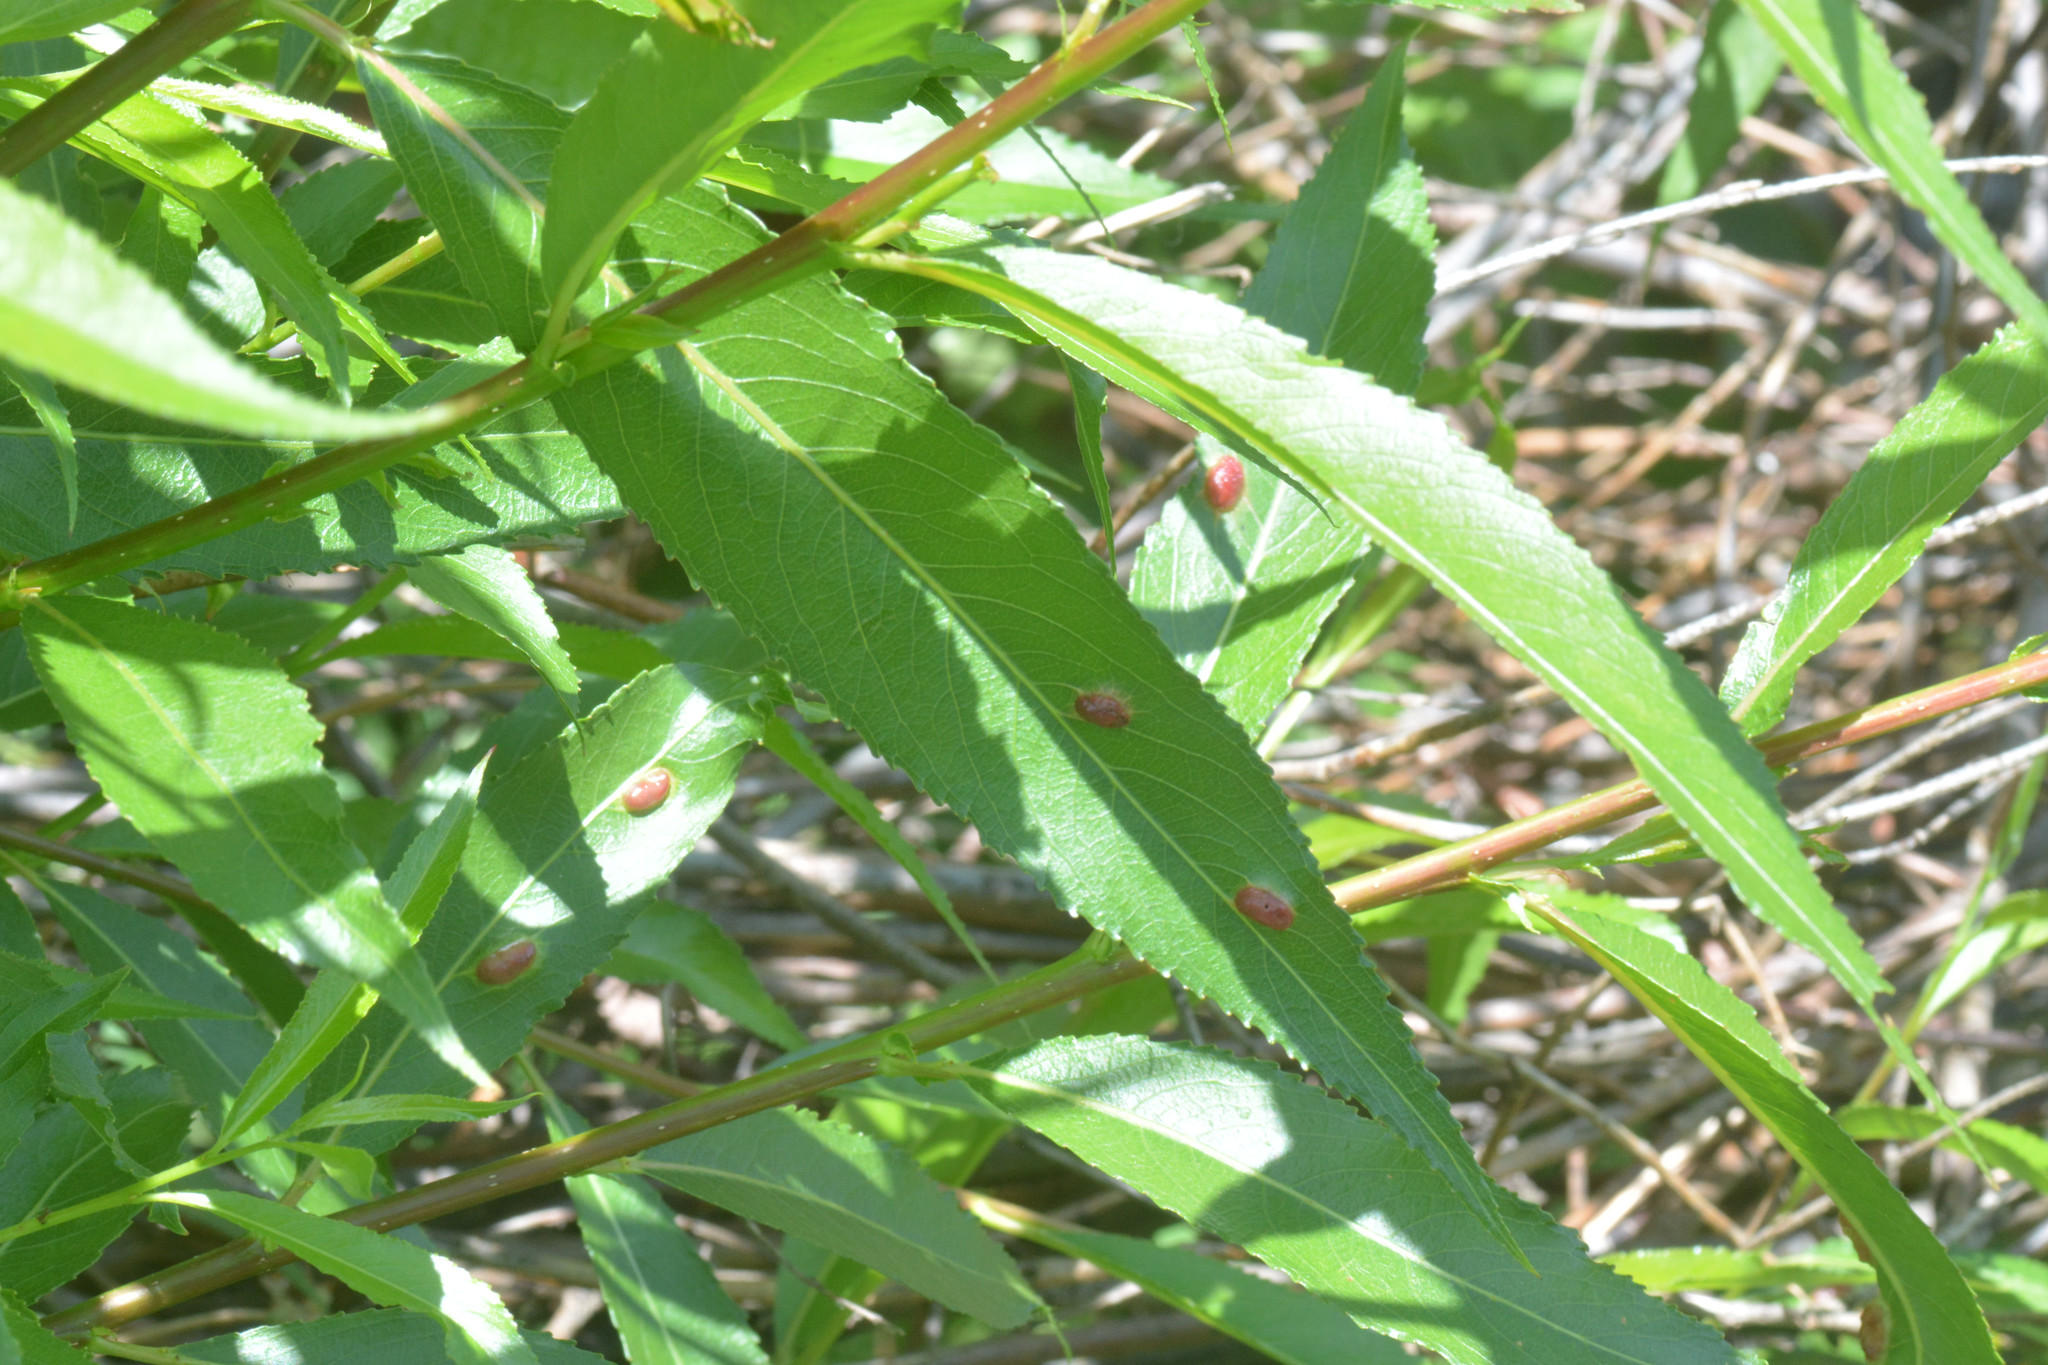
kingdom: Animalia
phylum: Arthropoda
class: Insecta
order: Hymenoptera
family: Tenthredinidae
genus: Pontania
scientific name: Pontania proxima
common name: Common sawfly
